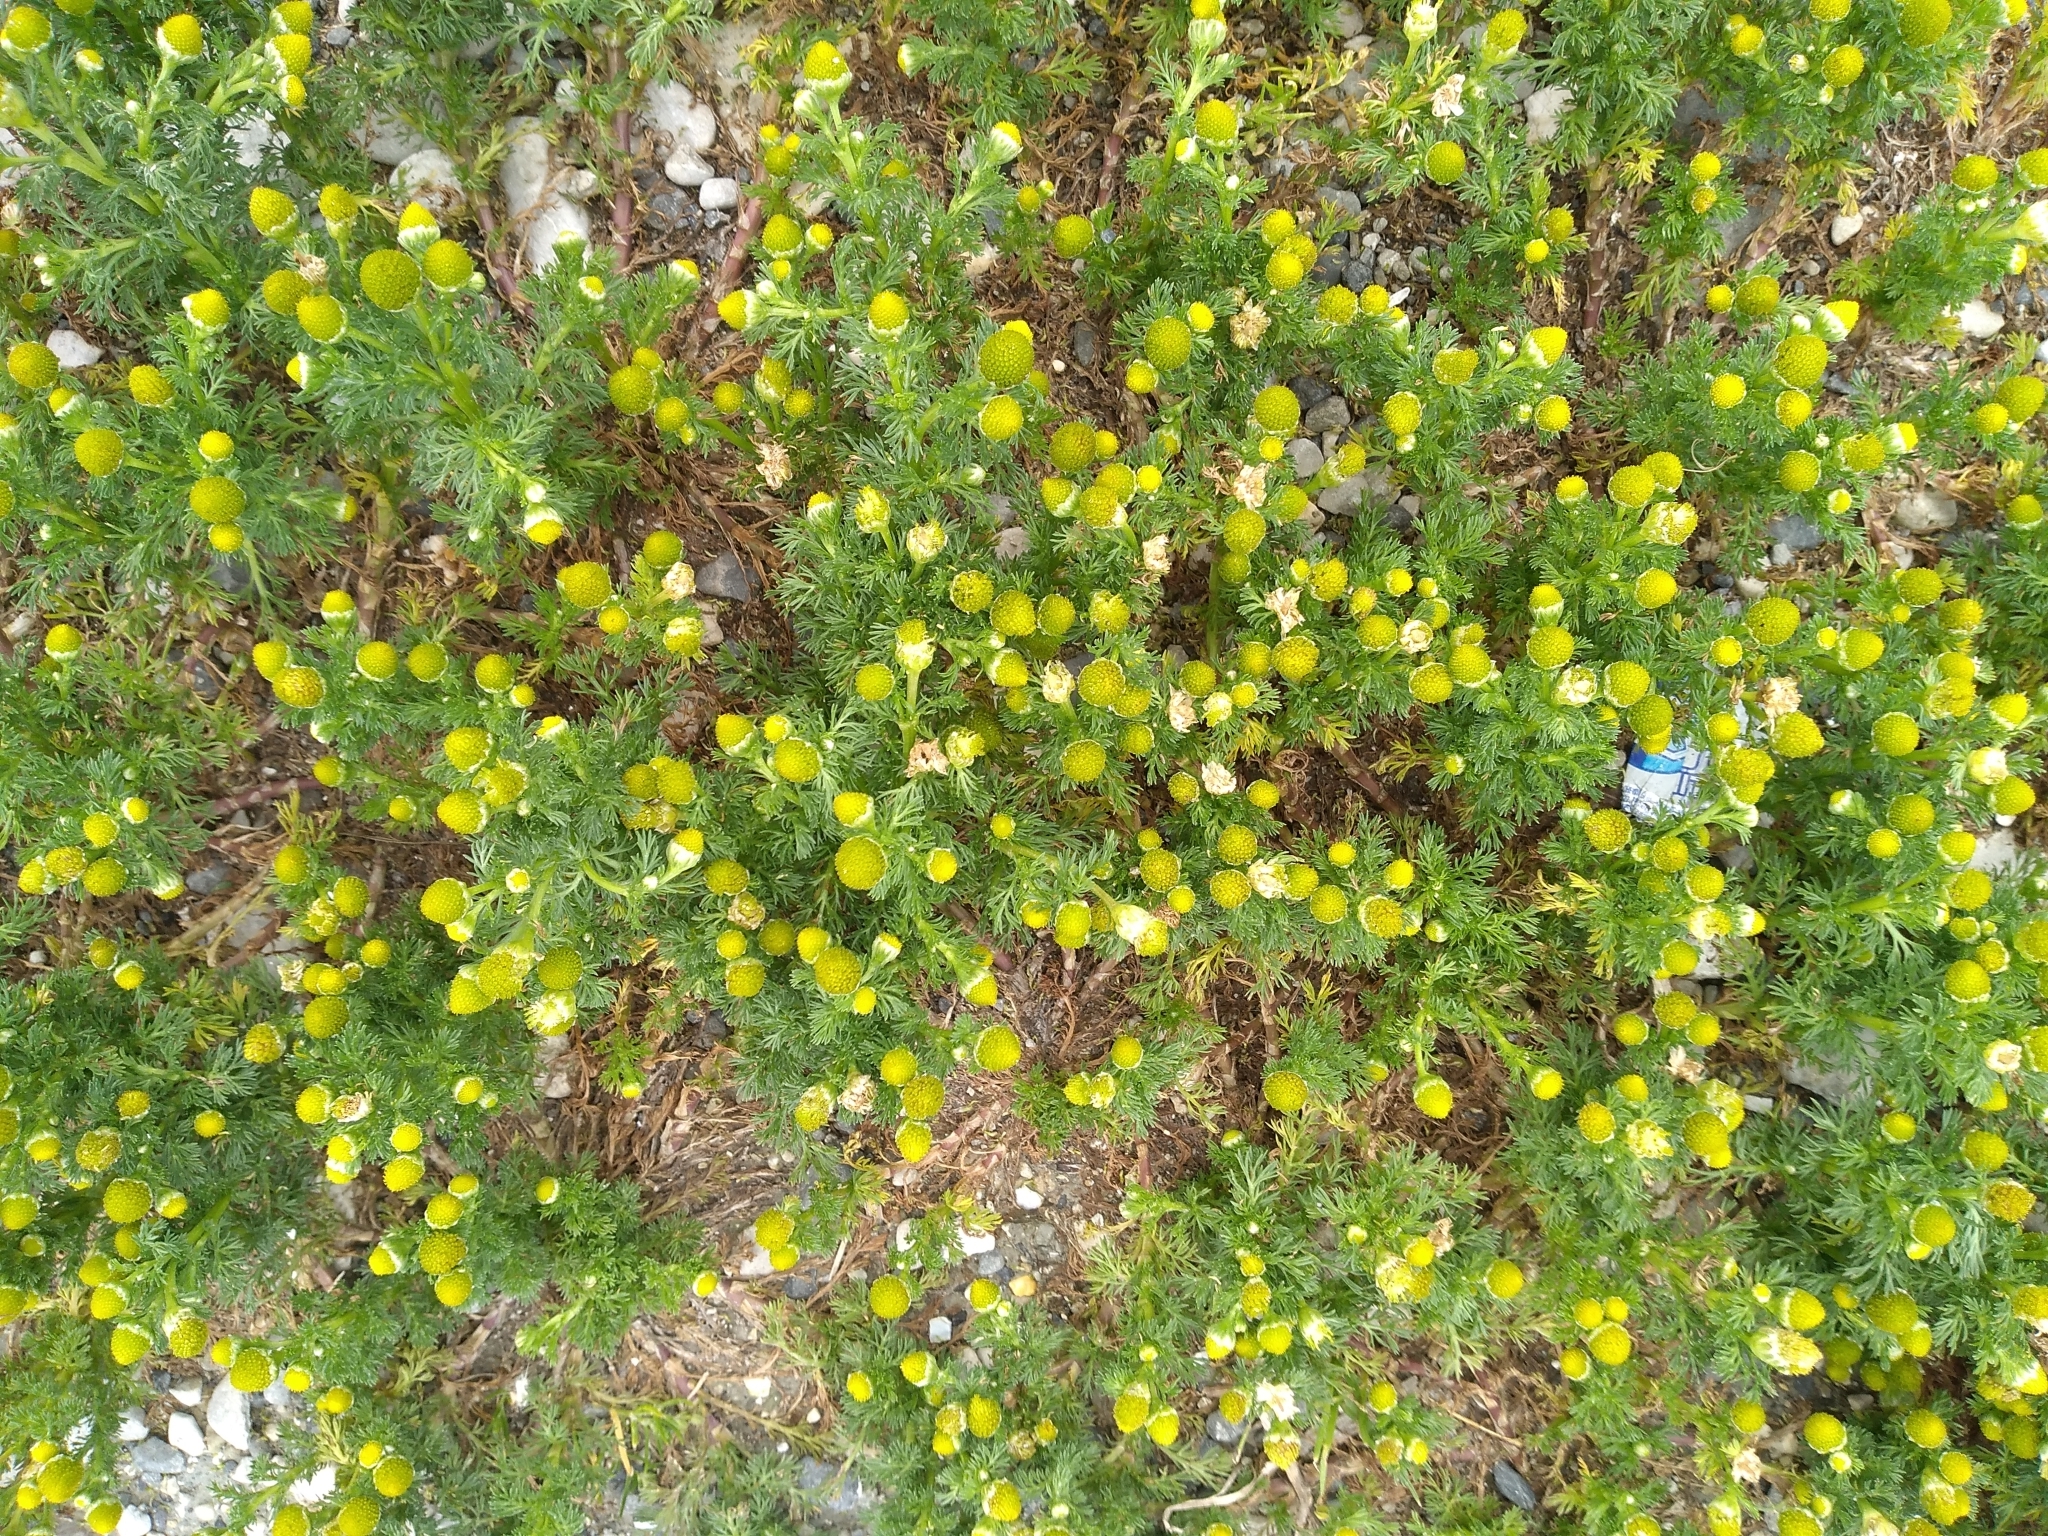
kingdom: Plantae
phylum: Tracheophyta
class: Magnoliopsida
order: Asterales
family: Asteraceae
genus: Matricaria
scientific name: Matricaria discoidea
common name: Disc mayweed
